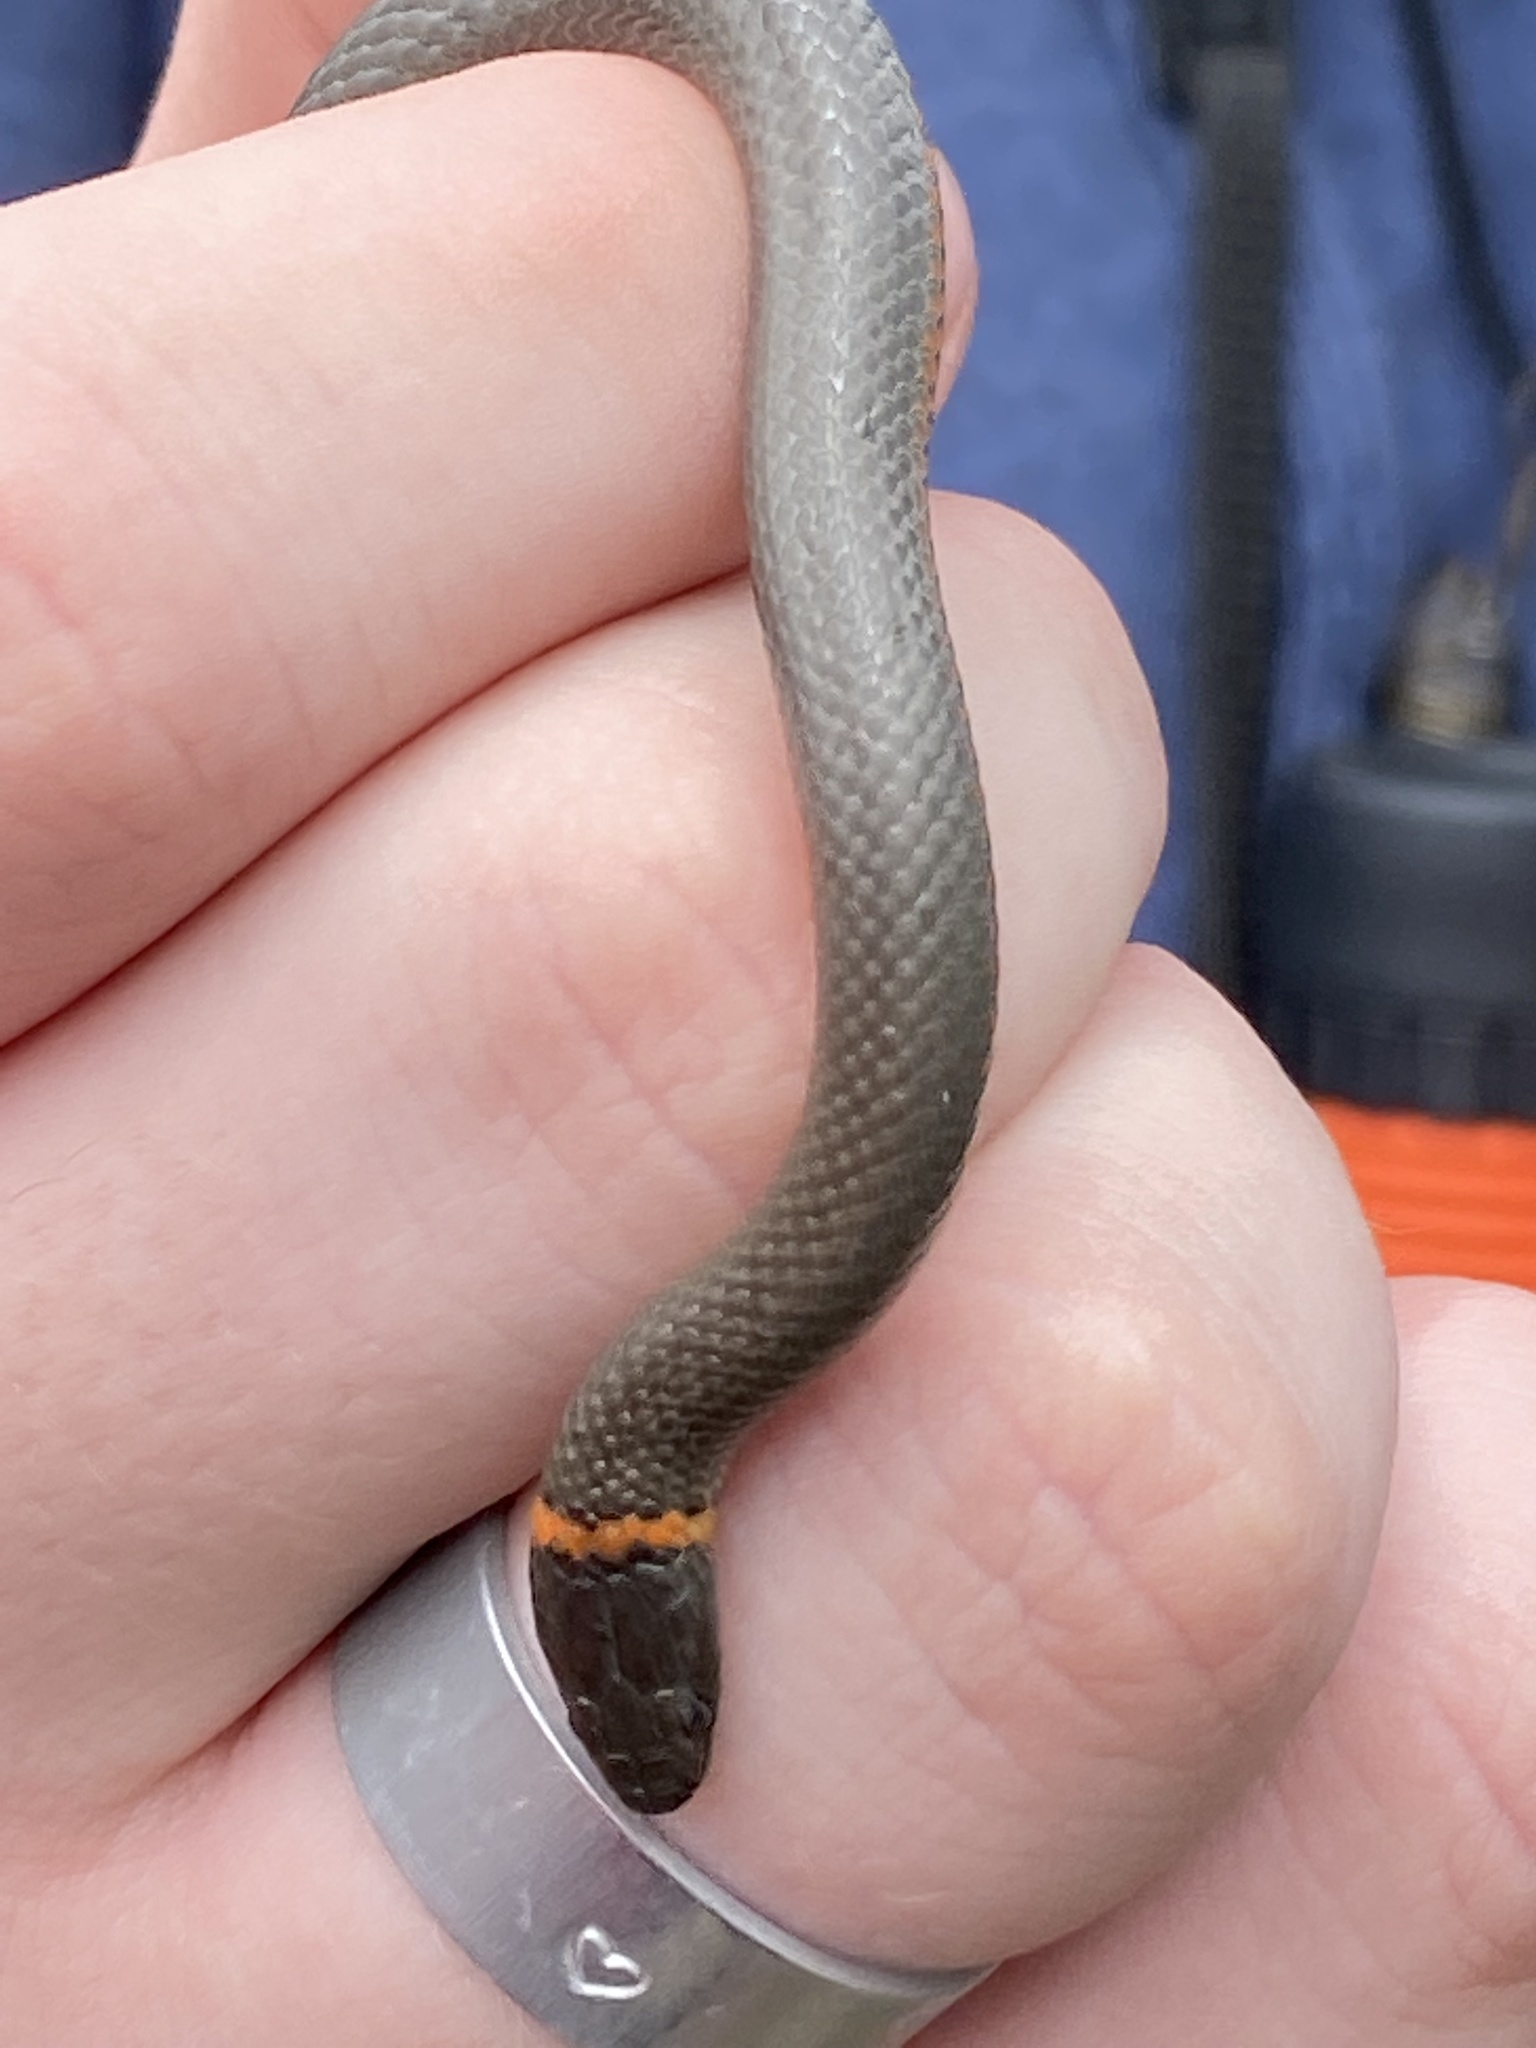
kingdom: Animalia
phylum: Chordata
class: Squamata
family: Colubridae
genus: Diadophis
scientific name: Diadophis punctatus
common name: Ringneck snake
